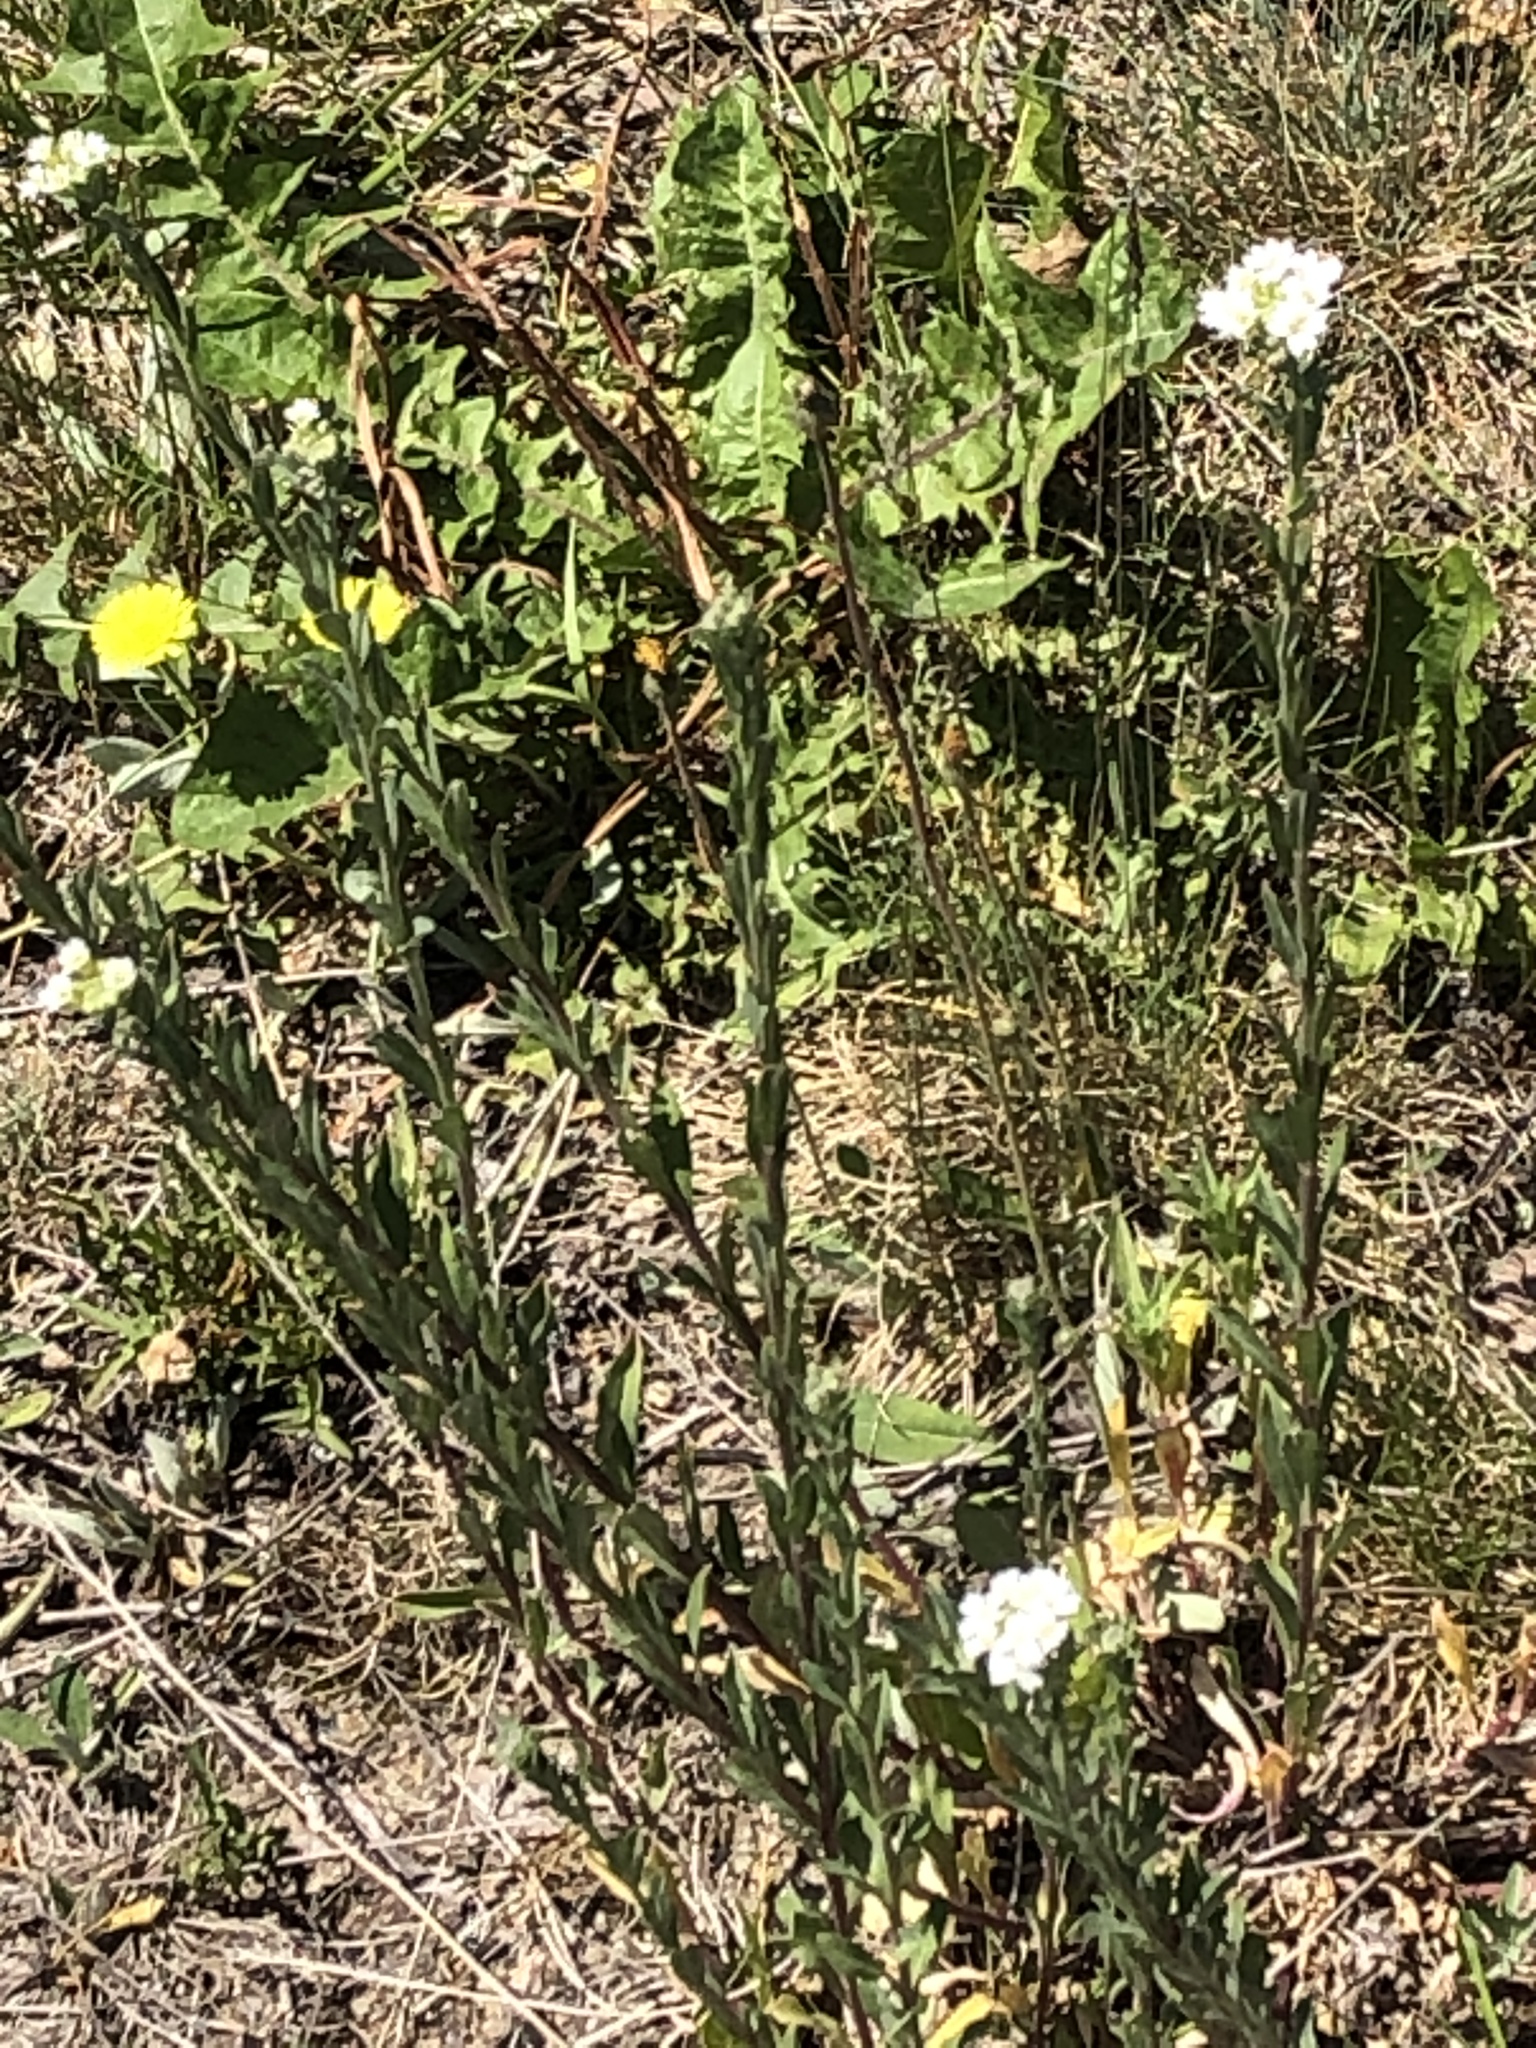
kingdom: Plantae
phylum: Tracheophyta
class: Magnoliopsida
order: Brassicales
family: Brassicaceae
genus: Turritis
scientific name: Turritis glabra
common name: Tower rockcress
